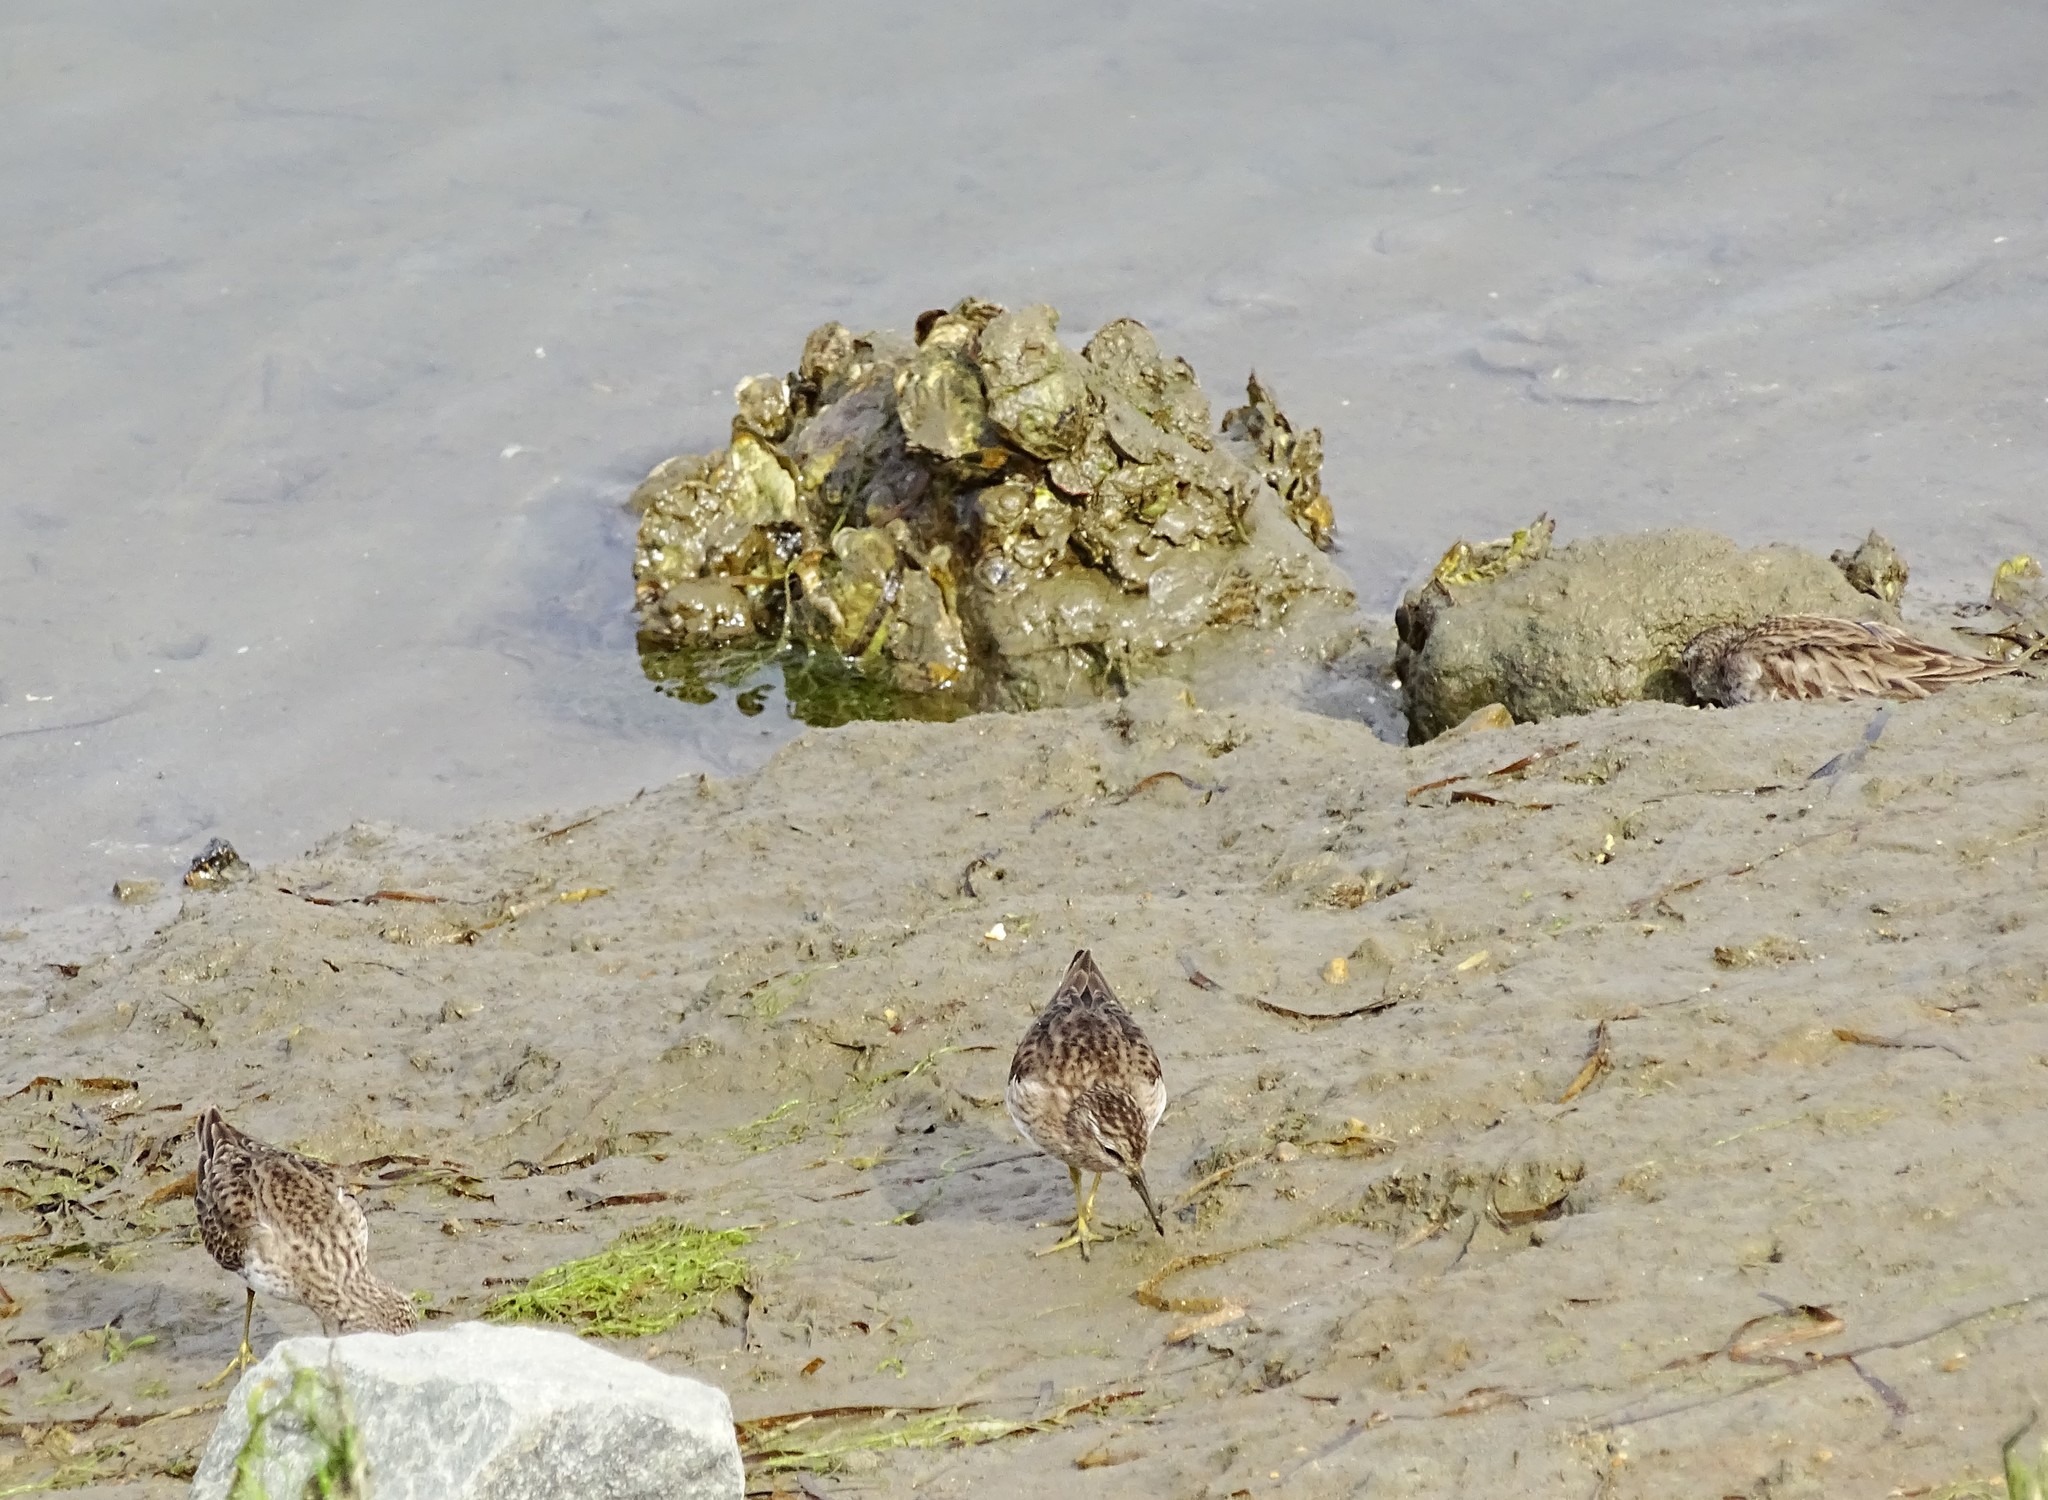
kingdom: Animalia
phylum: Chordata
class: Aves
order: Charadriiformes
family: Scolopacidae
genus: Calidris
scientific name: Calidris minutilla
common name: Least sandpiper
